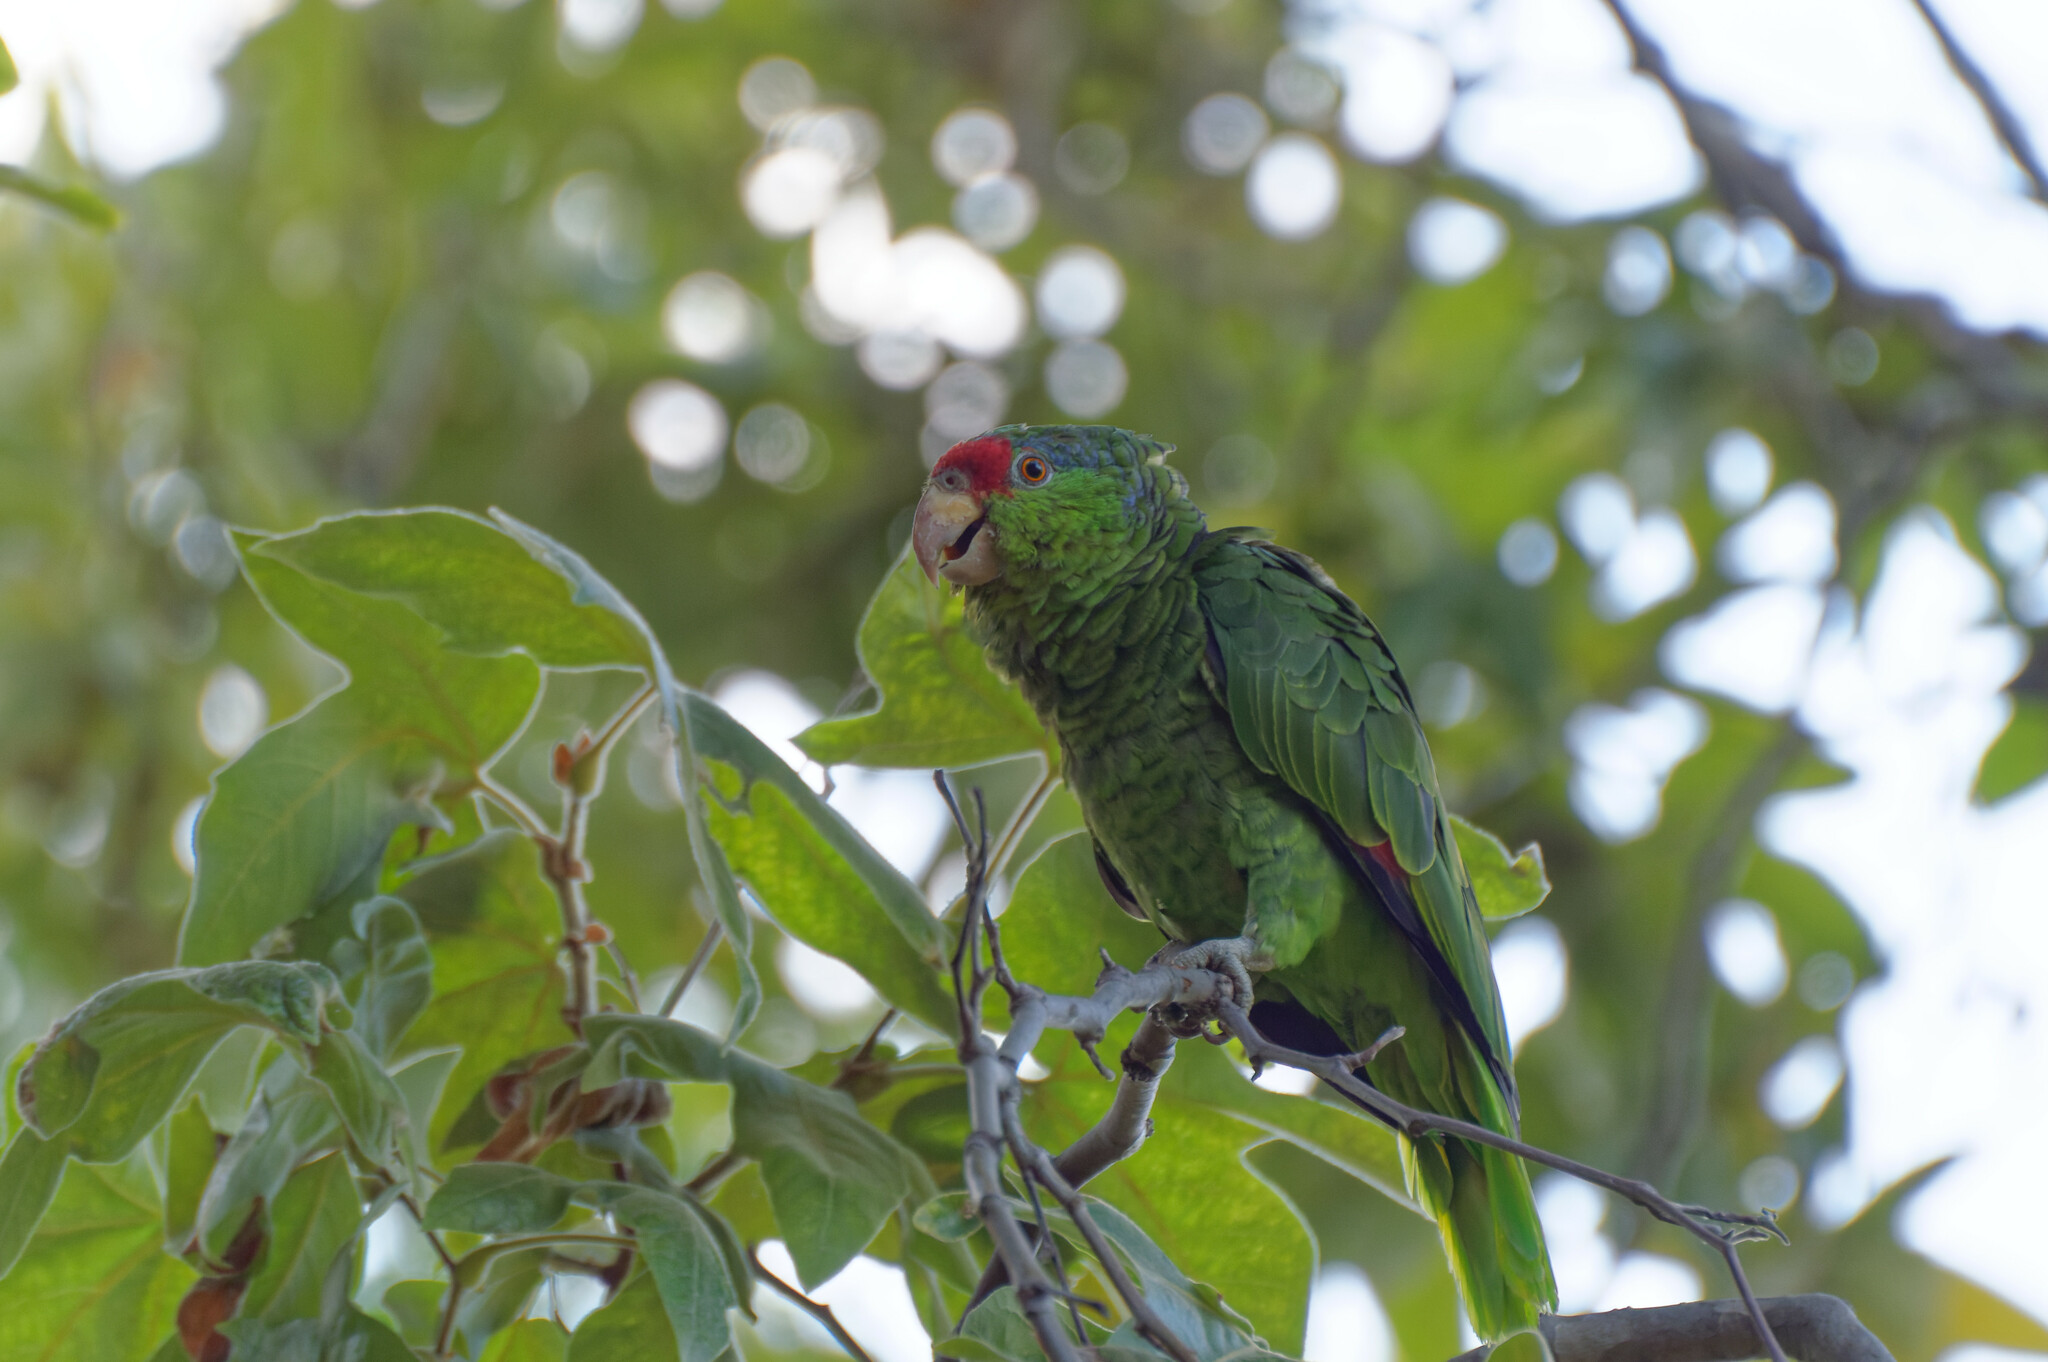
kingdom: Animalia
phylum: Chordata
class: Aves
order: Psittaciformes
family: Psittacidae
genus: Amazona
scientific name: Amazona
